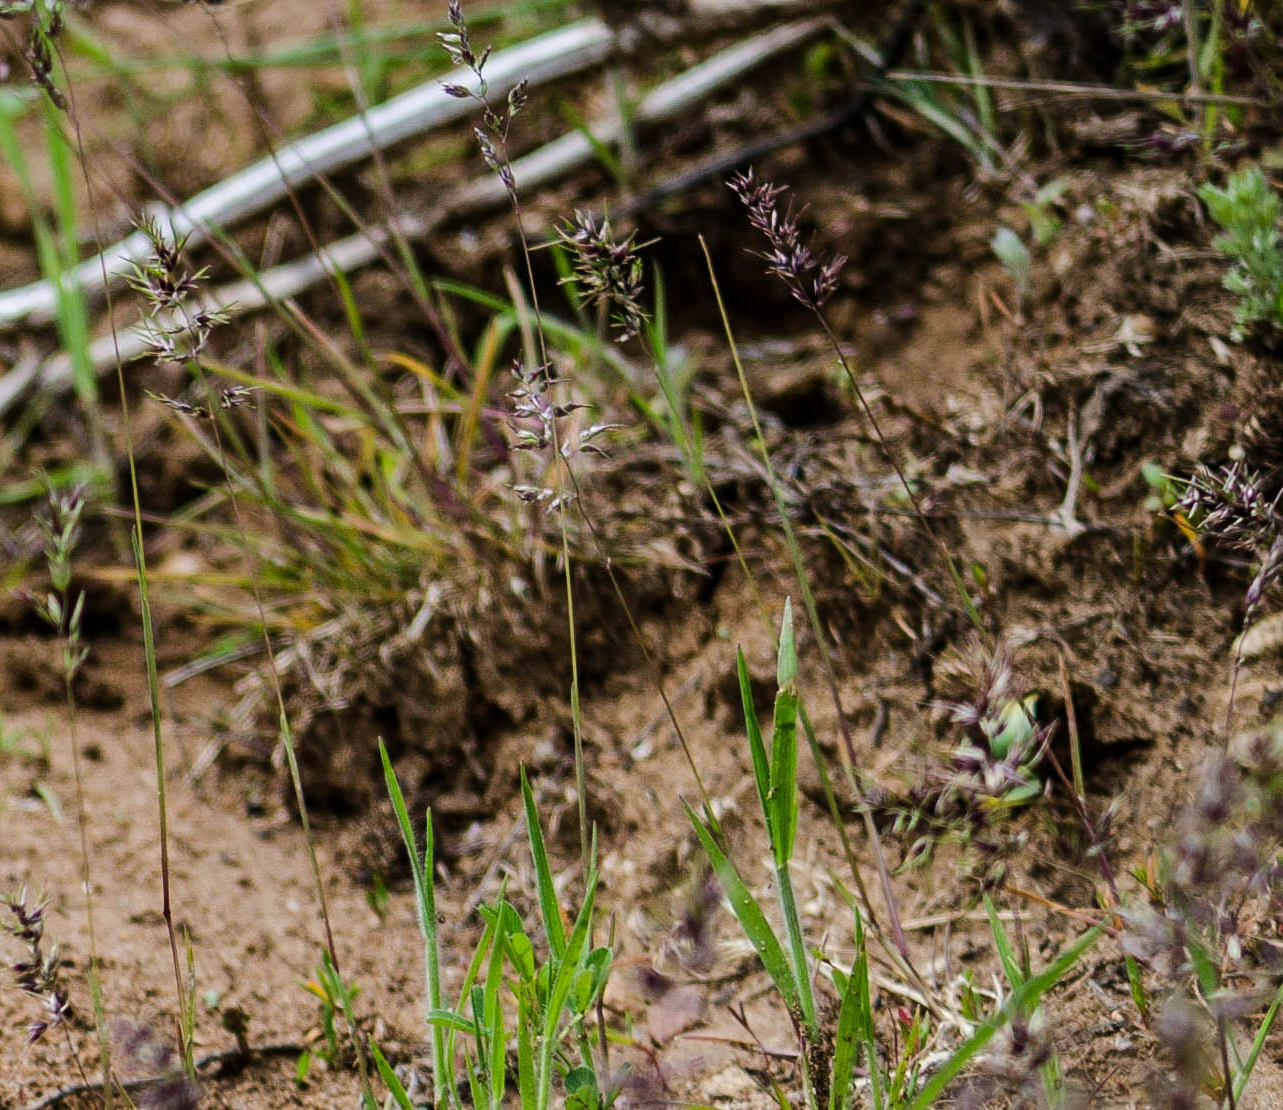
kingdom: Plantae
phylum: Tracheophyta
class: Liliopsida
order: Poales
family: Poaceae
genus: Poa
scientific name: Poa bulbosa
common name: Bulbous bluegrass
